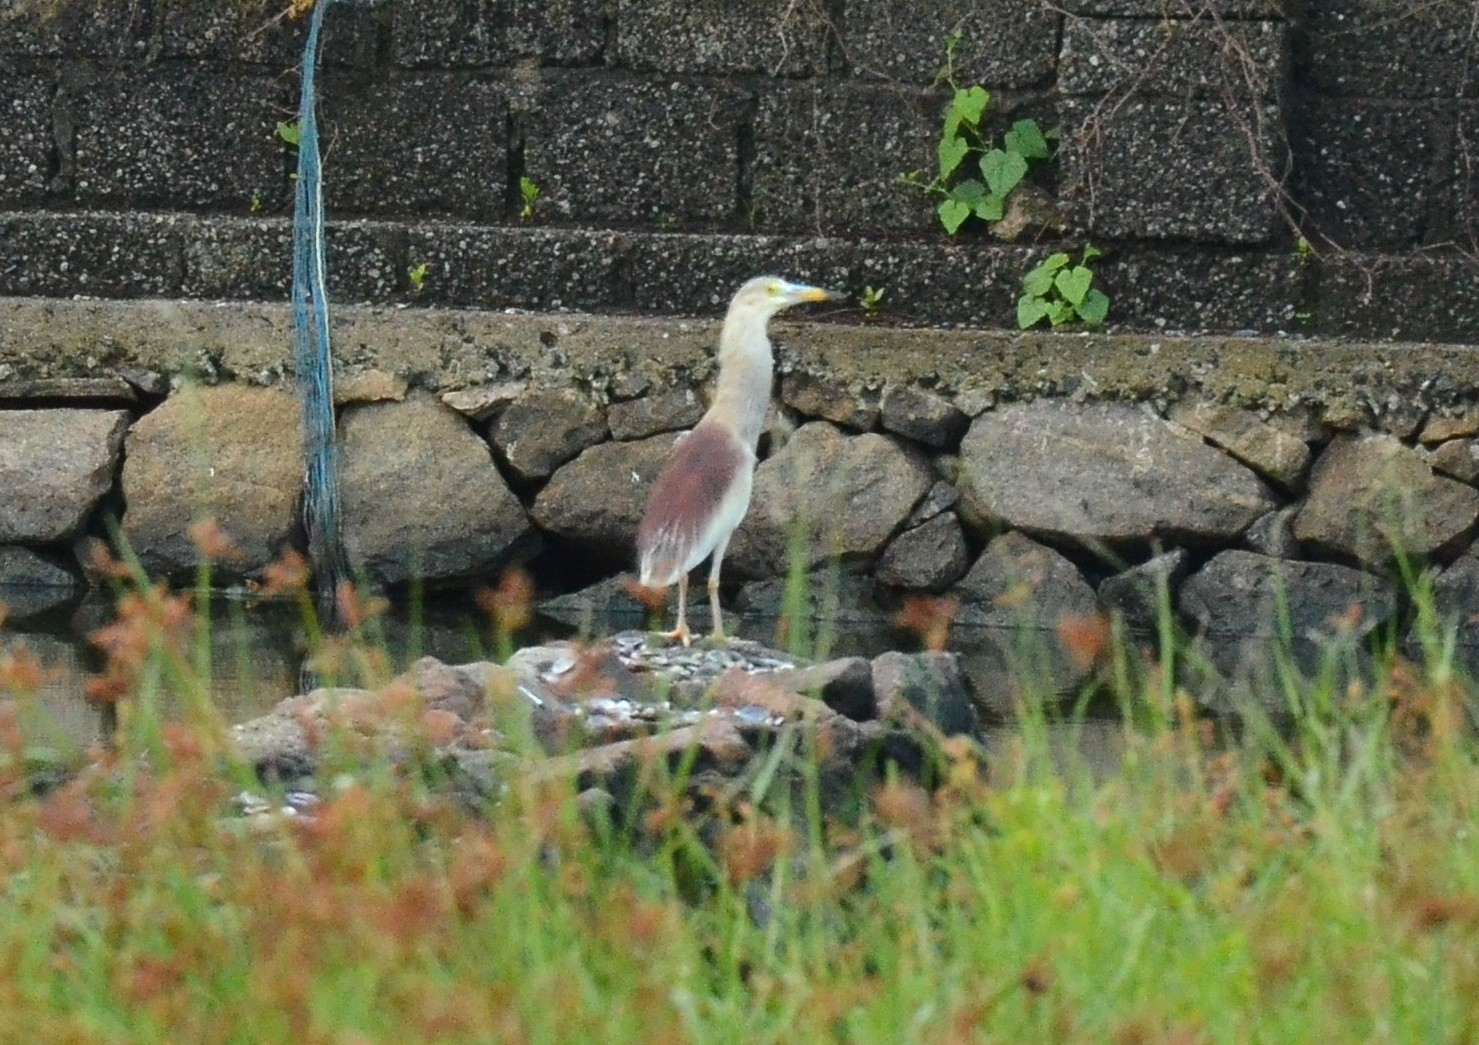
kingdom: Animalia
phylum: Chordata
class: Aves
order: Pelecaniformes
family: Ardeidae
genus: Ardeola
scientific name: Ardeola grayii
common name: Indian pond heron
